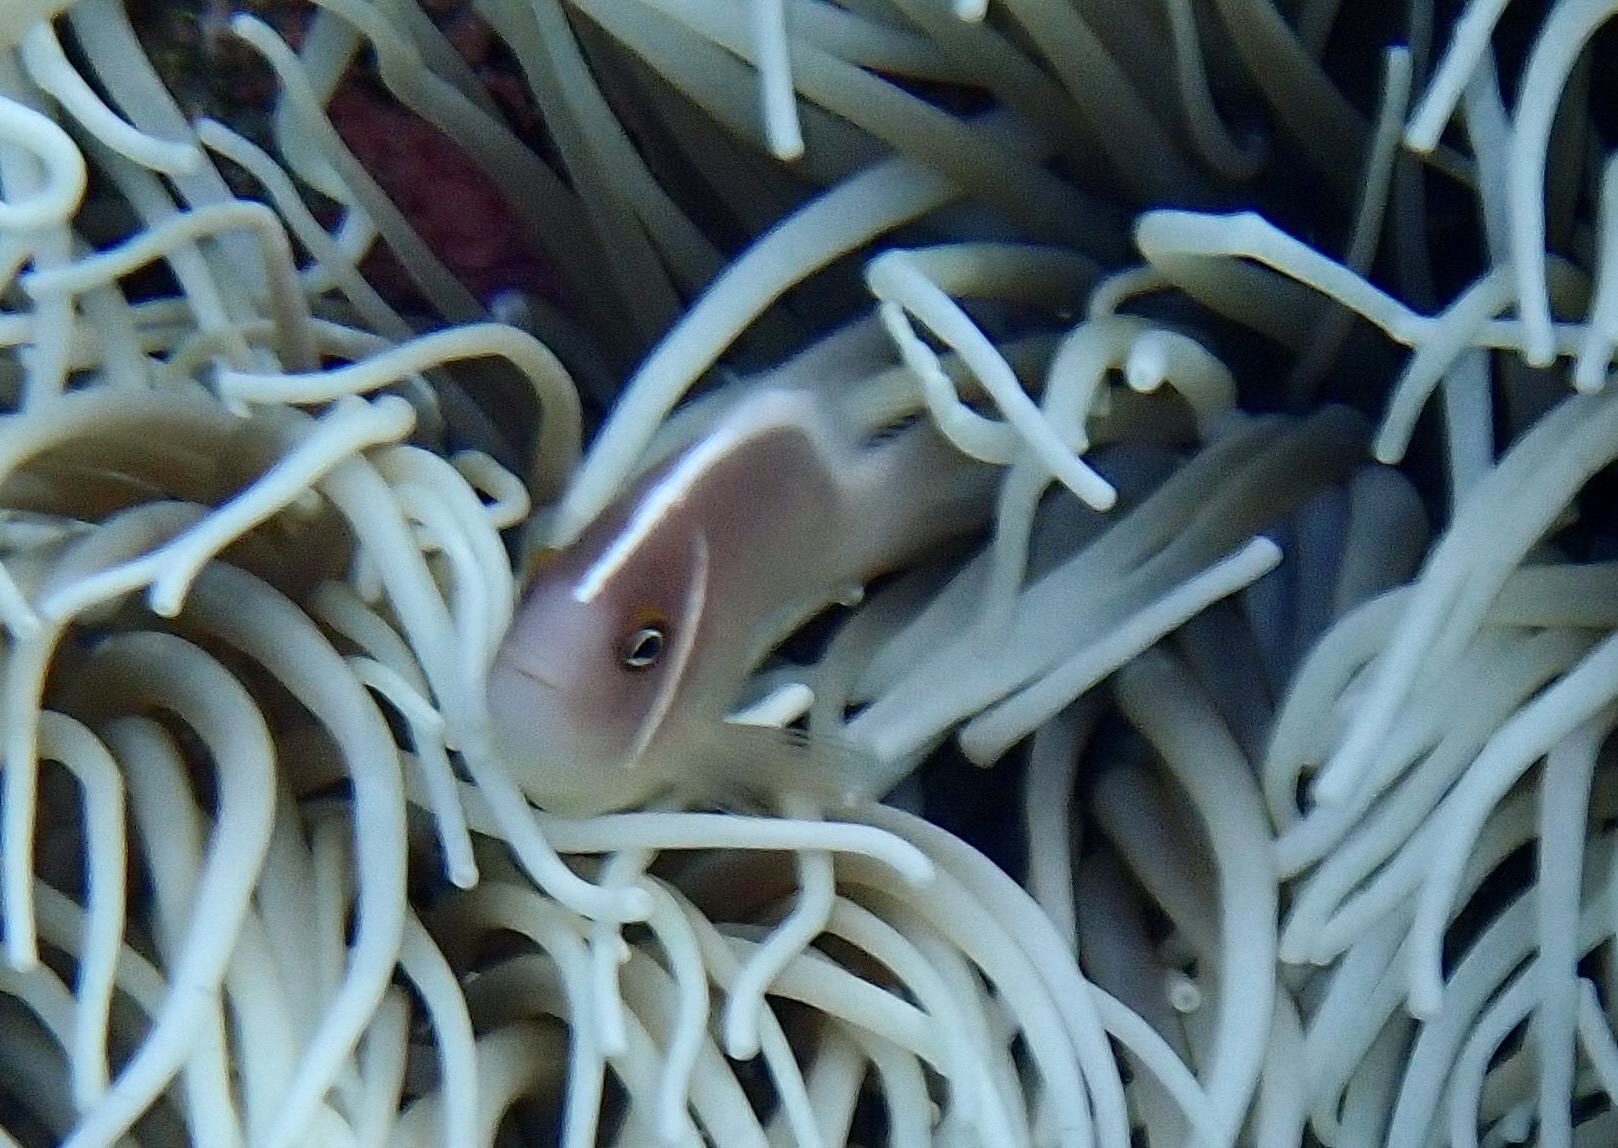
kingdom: Animalia
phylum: Chordata
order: Perciformes
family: Pomacentridae
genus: Amphiprion
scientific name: Amphiprion perideraion
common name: Pink anemonefish
